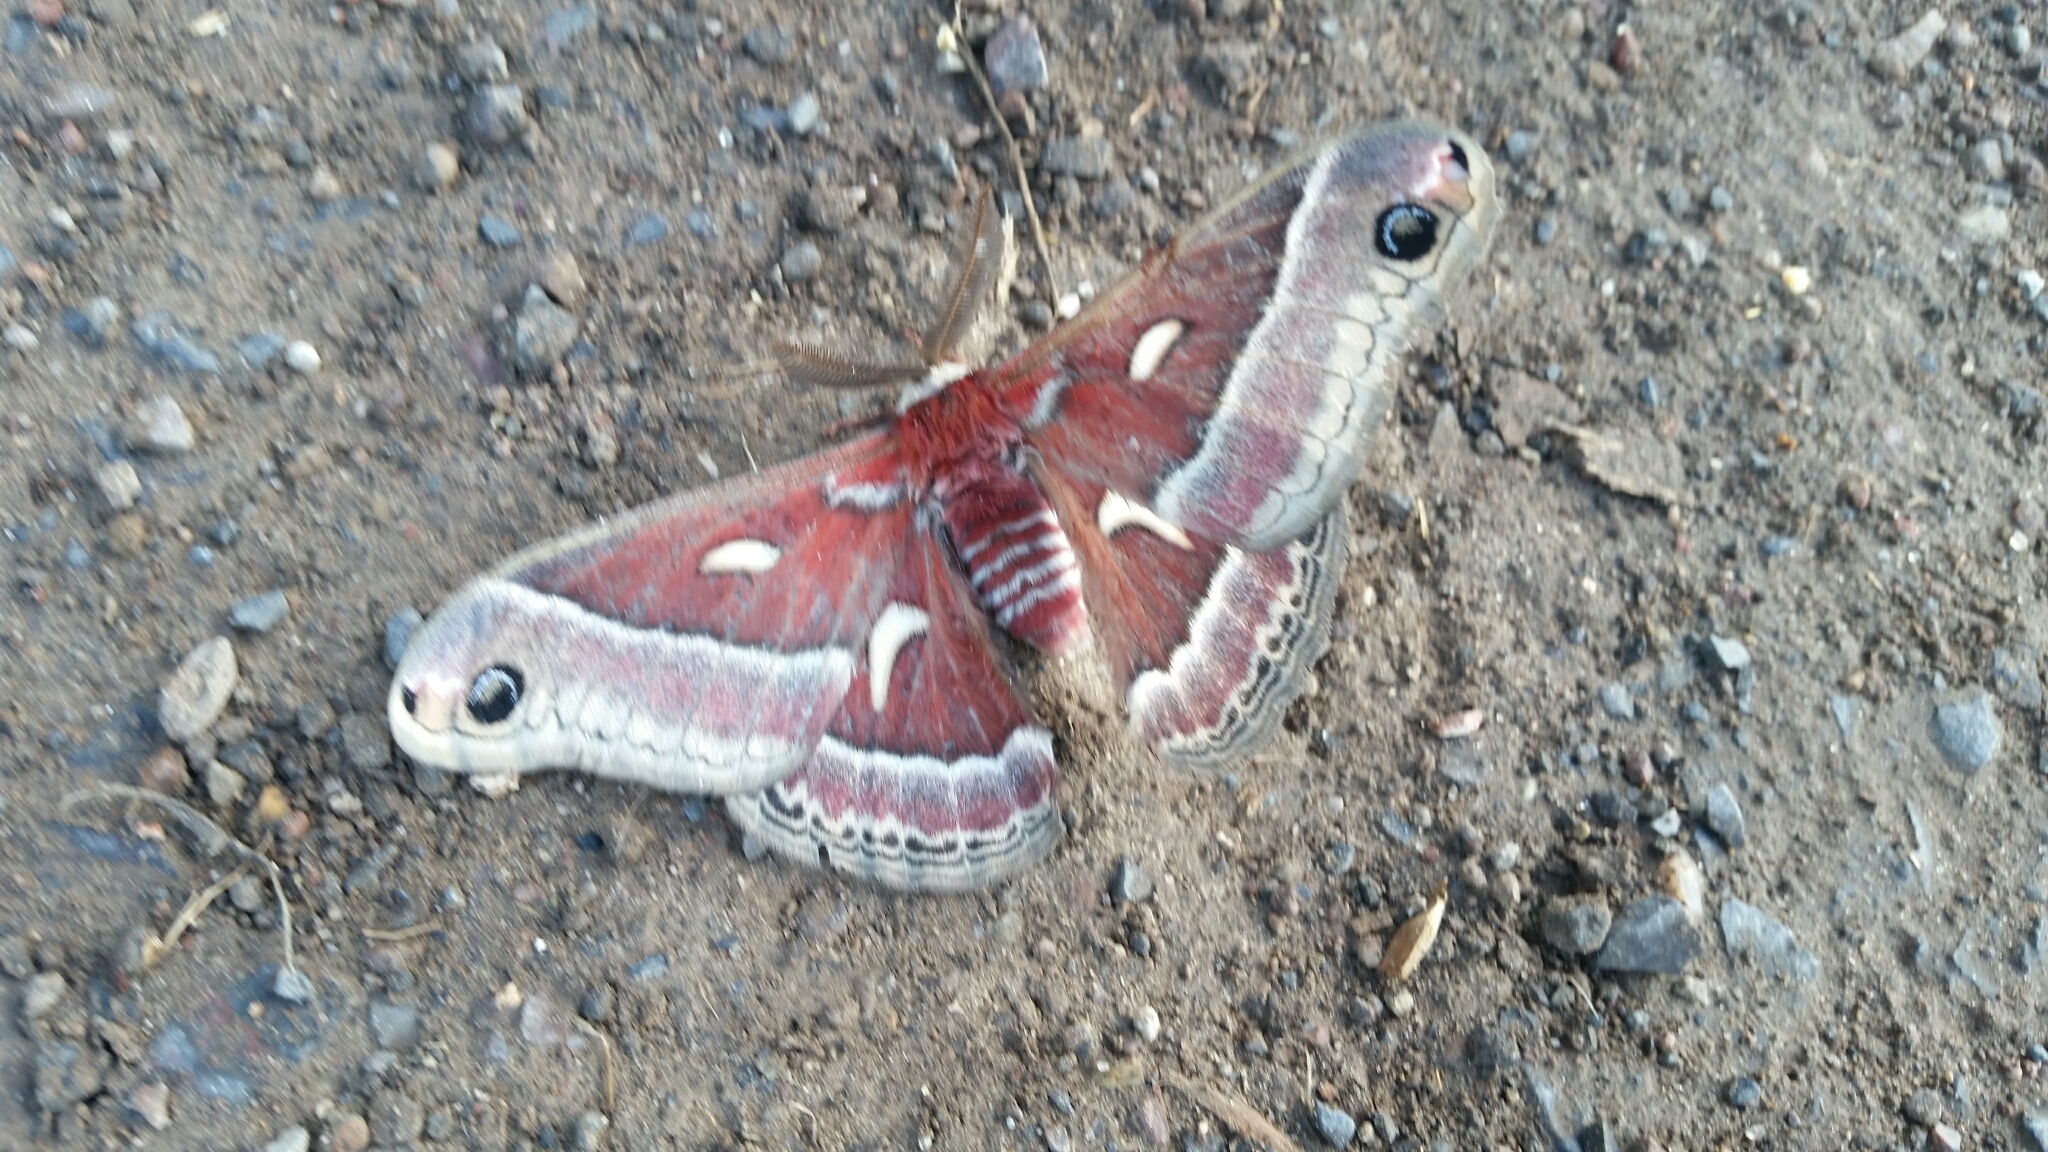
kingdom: Animalia
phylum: Arthropoda
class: Insecta
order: Lepidoptera
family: Saturniidae
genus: Hyalophora
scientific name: Hyalophora euryalus
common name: Ceanothus silkmoth
